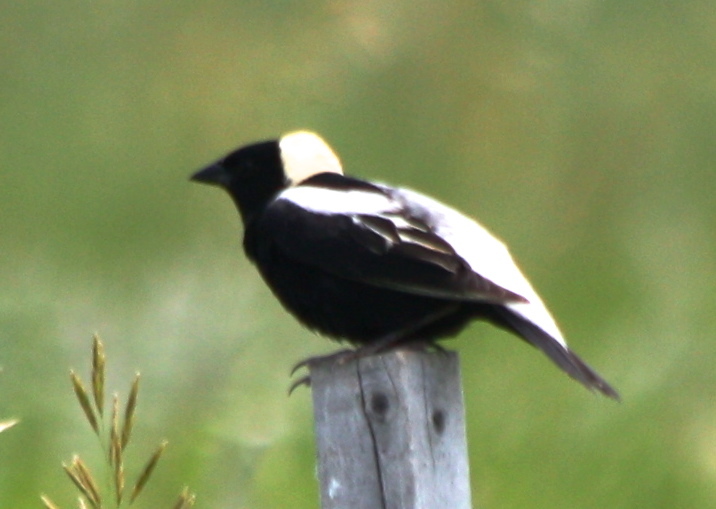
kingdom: Animalia
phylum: Chordata
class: Aves
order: Passeriformes
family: Icteridae
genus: Dolichonyx
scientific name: Dolichonyx oryzivorus
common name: Bobolink
